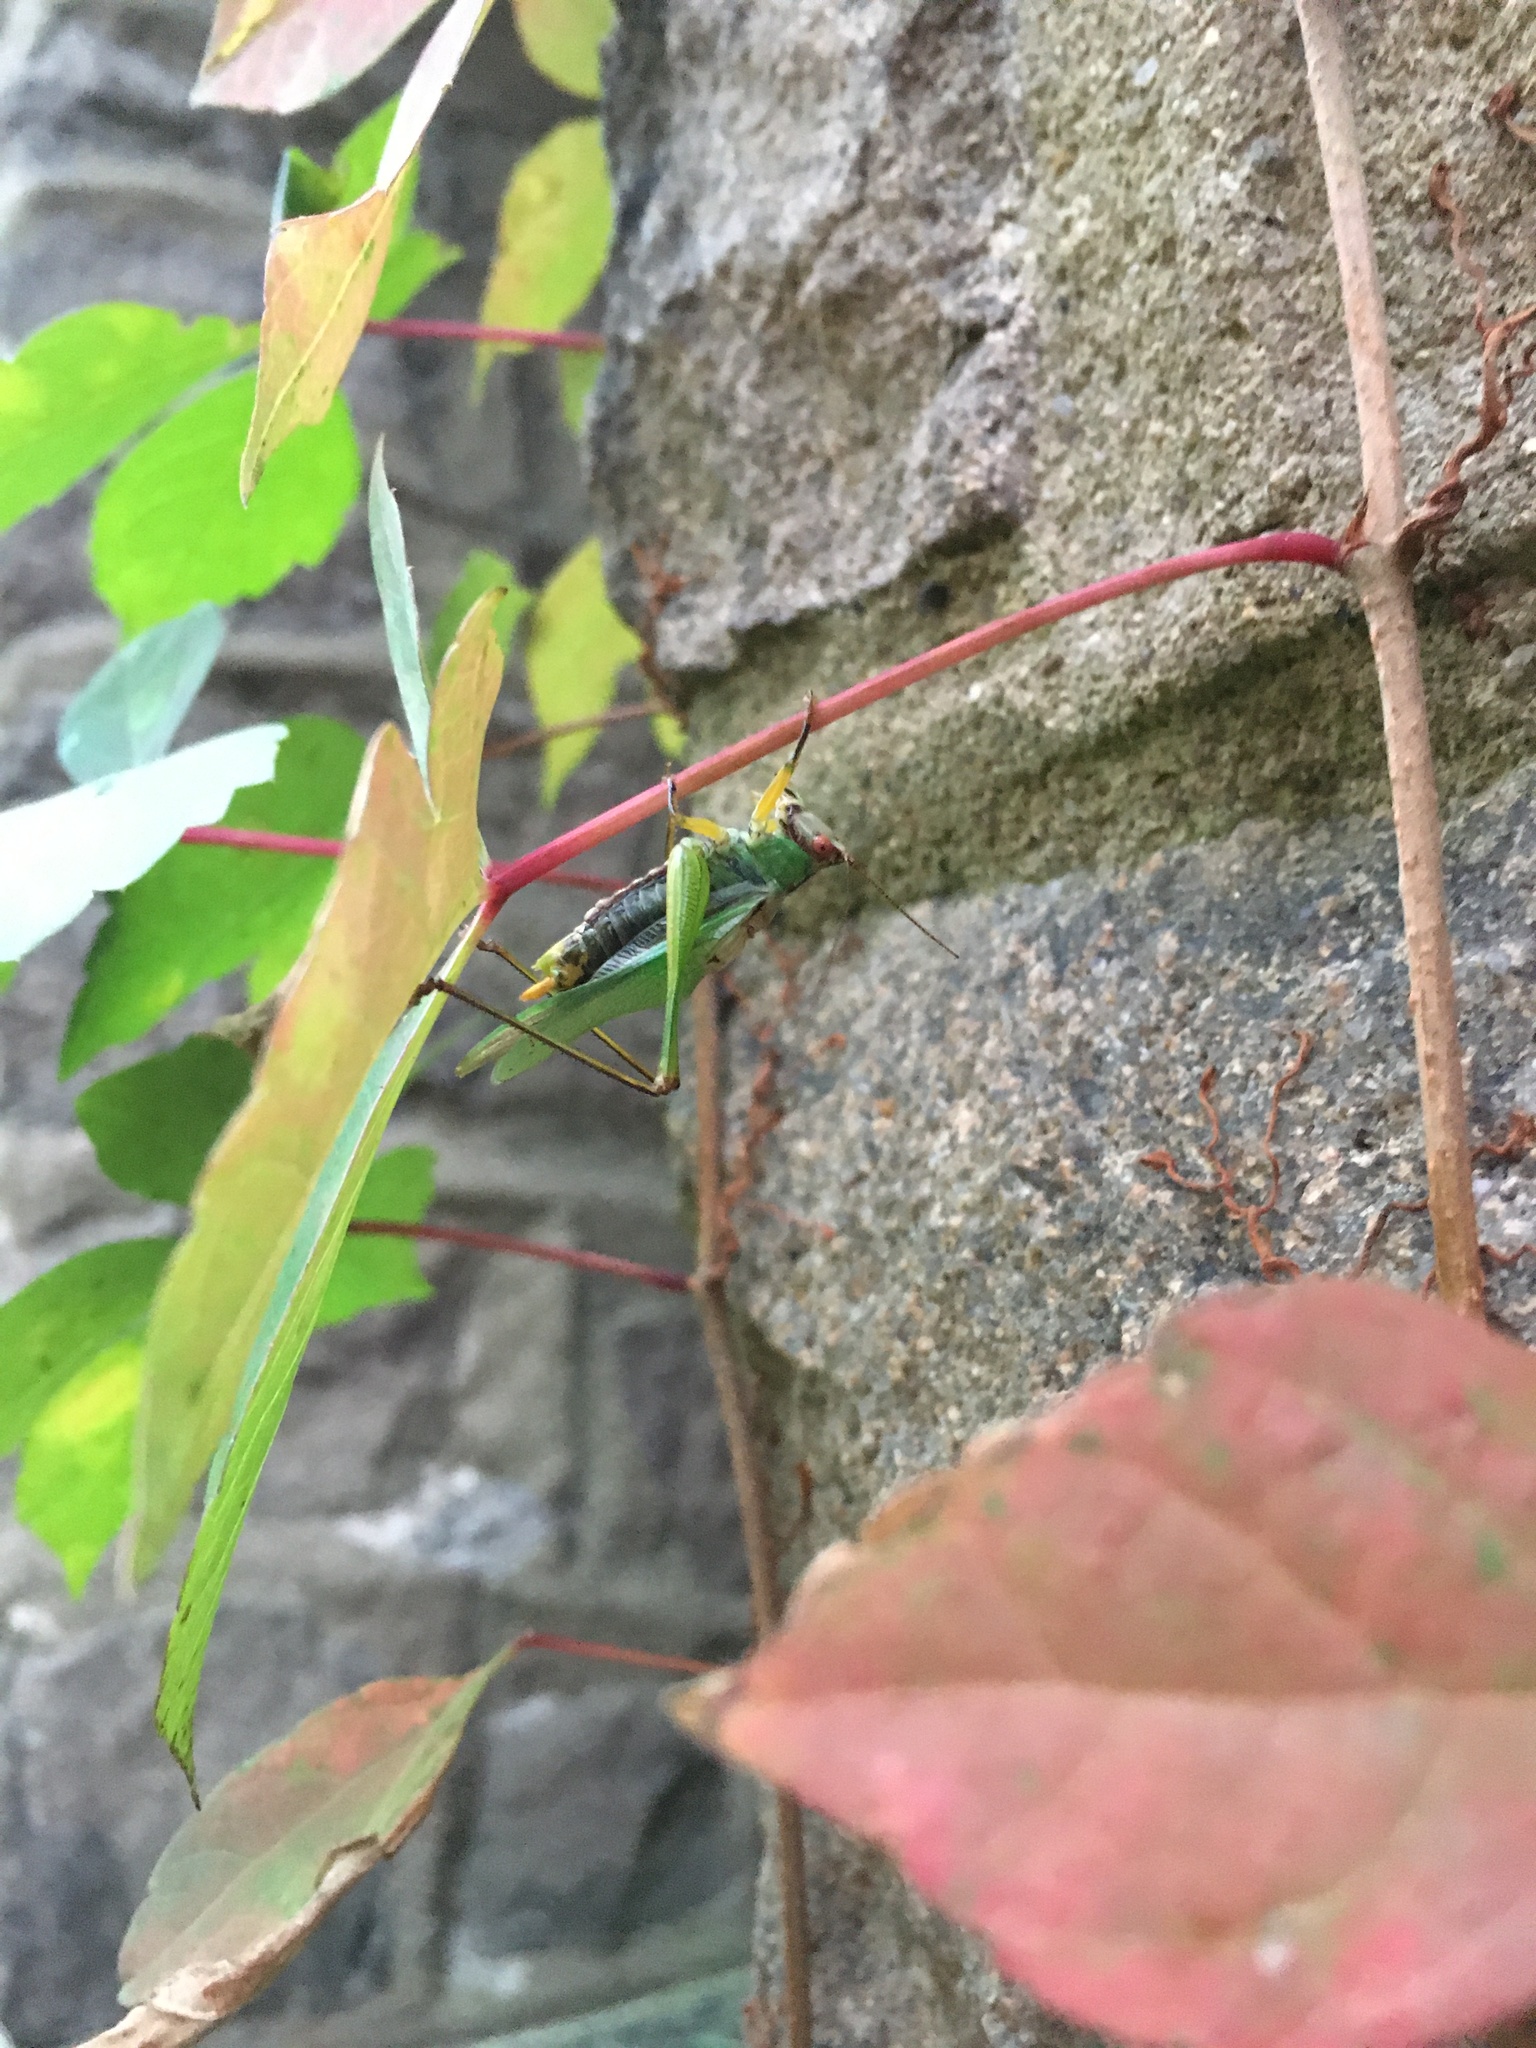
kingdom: Animalia
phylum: Arthropoda
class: Insecta
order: Orthoptera
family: Tettigoniidae
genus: Orchelimum
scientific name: Orchelimum nigripes
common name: Black-legged meadow katydid
